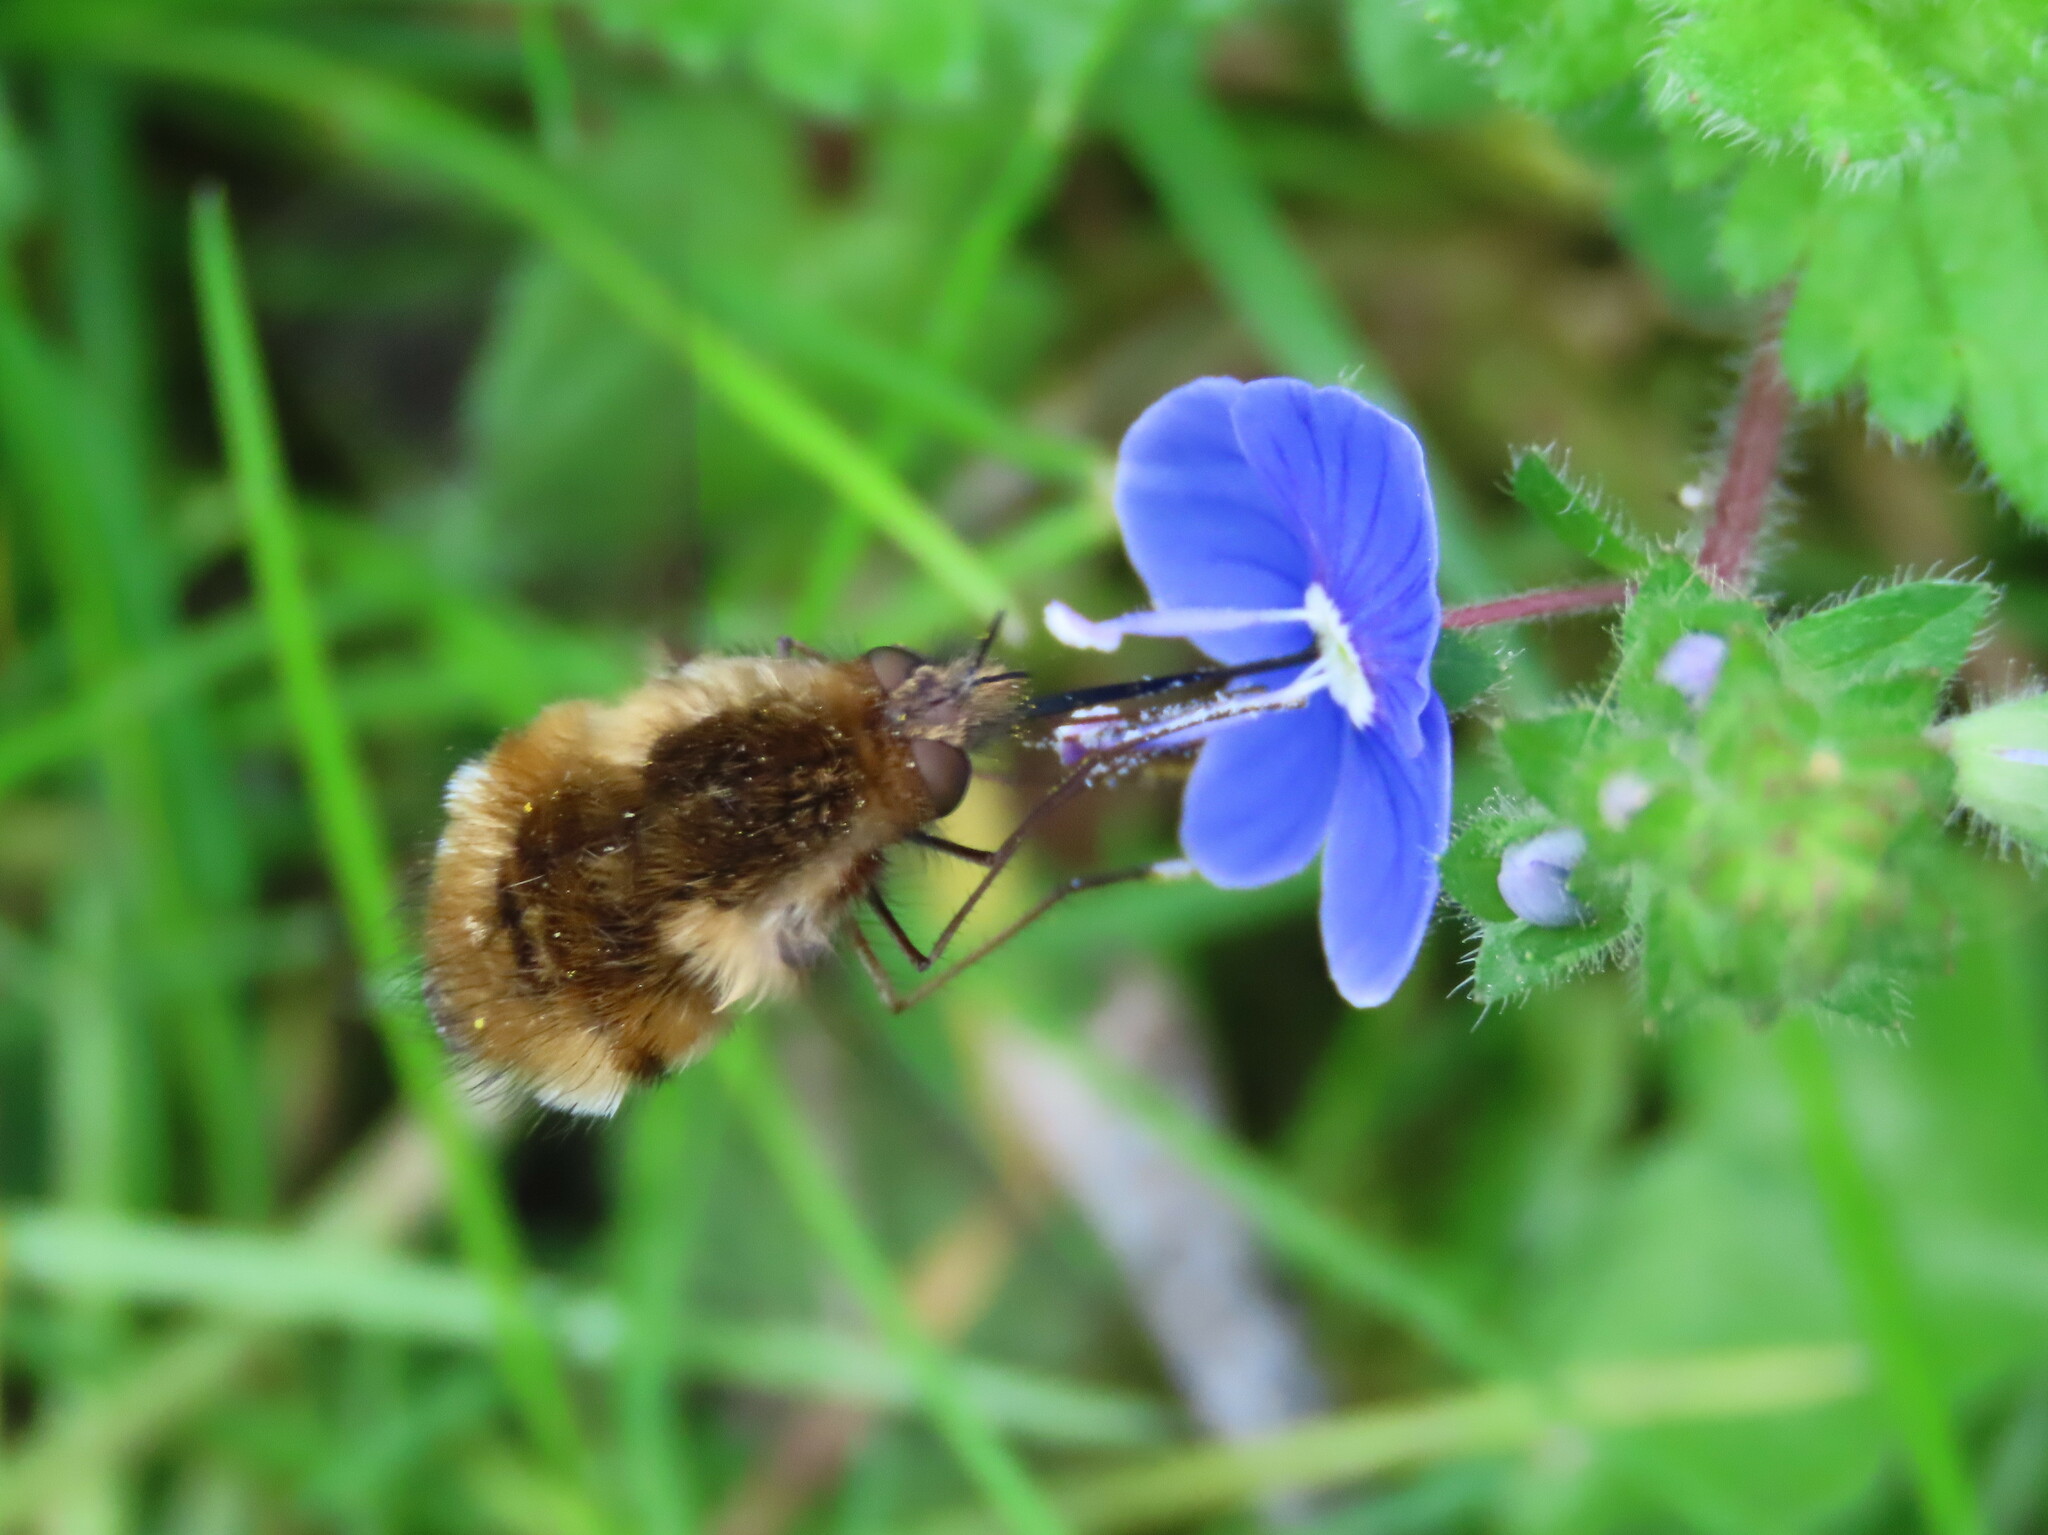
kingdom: Animalia
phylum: Arthropoda
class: Insecta
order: Diptera
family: Bombyliidae
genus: Bombylius
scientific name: Bombylius major
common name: Bee fly
